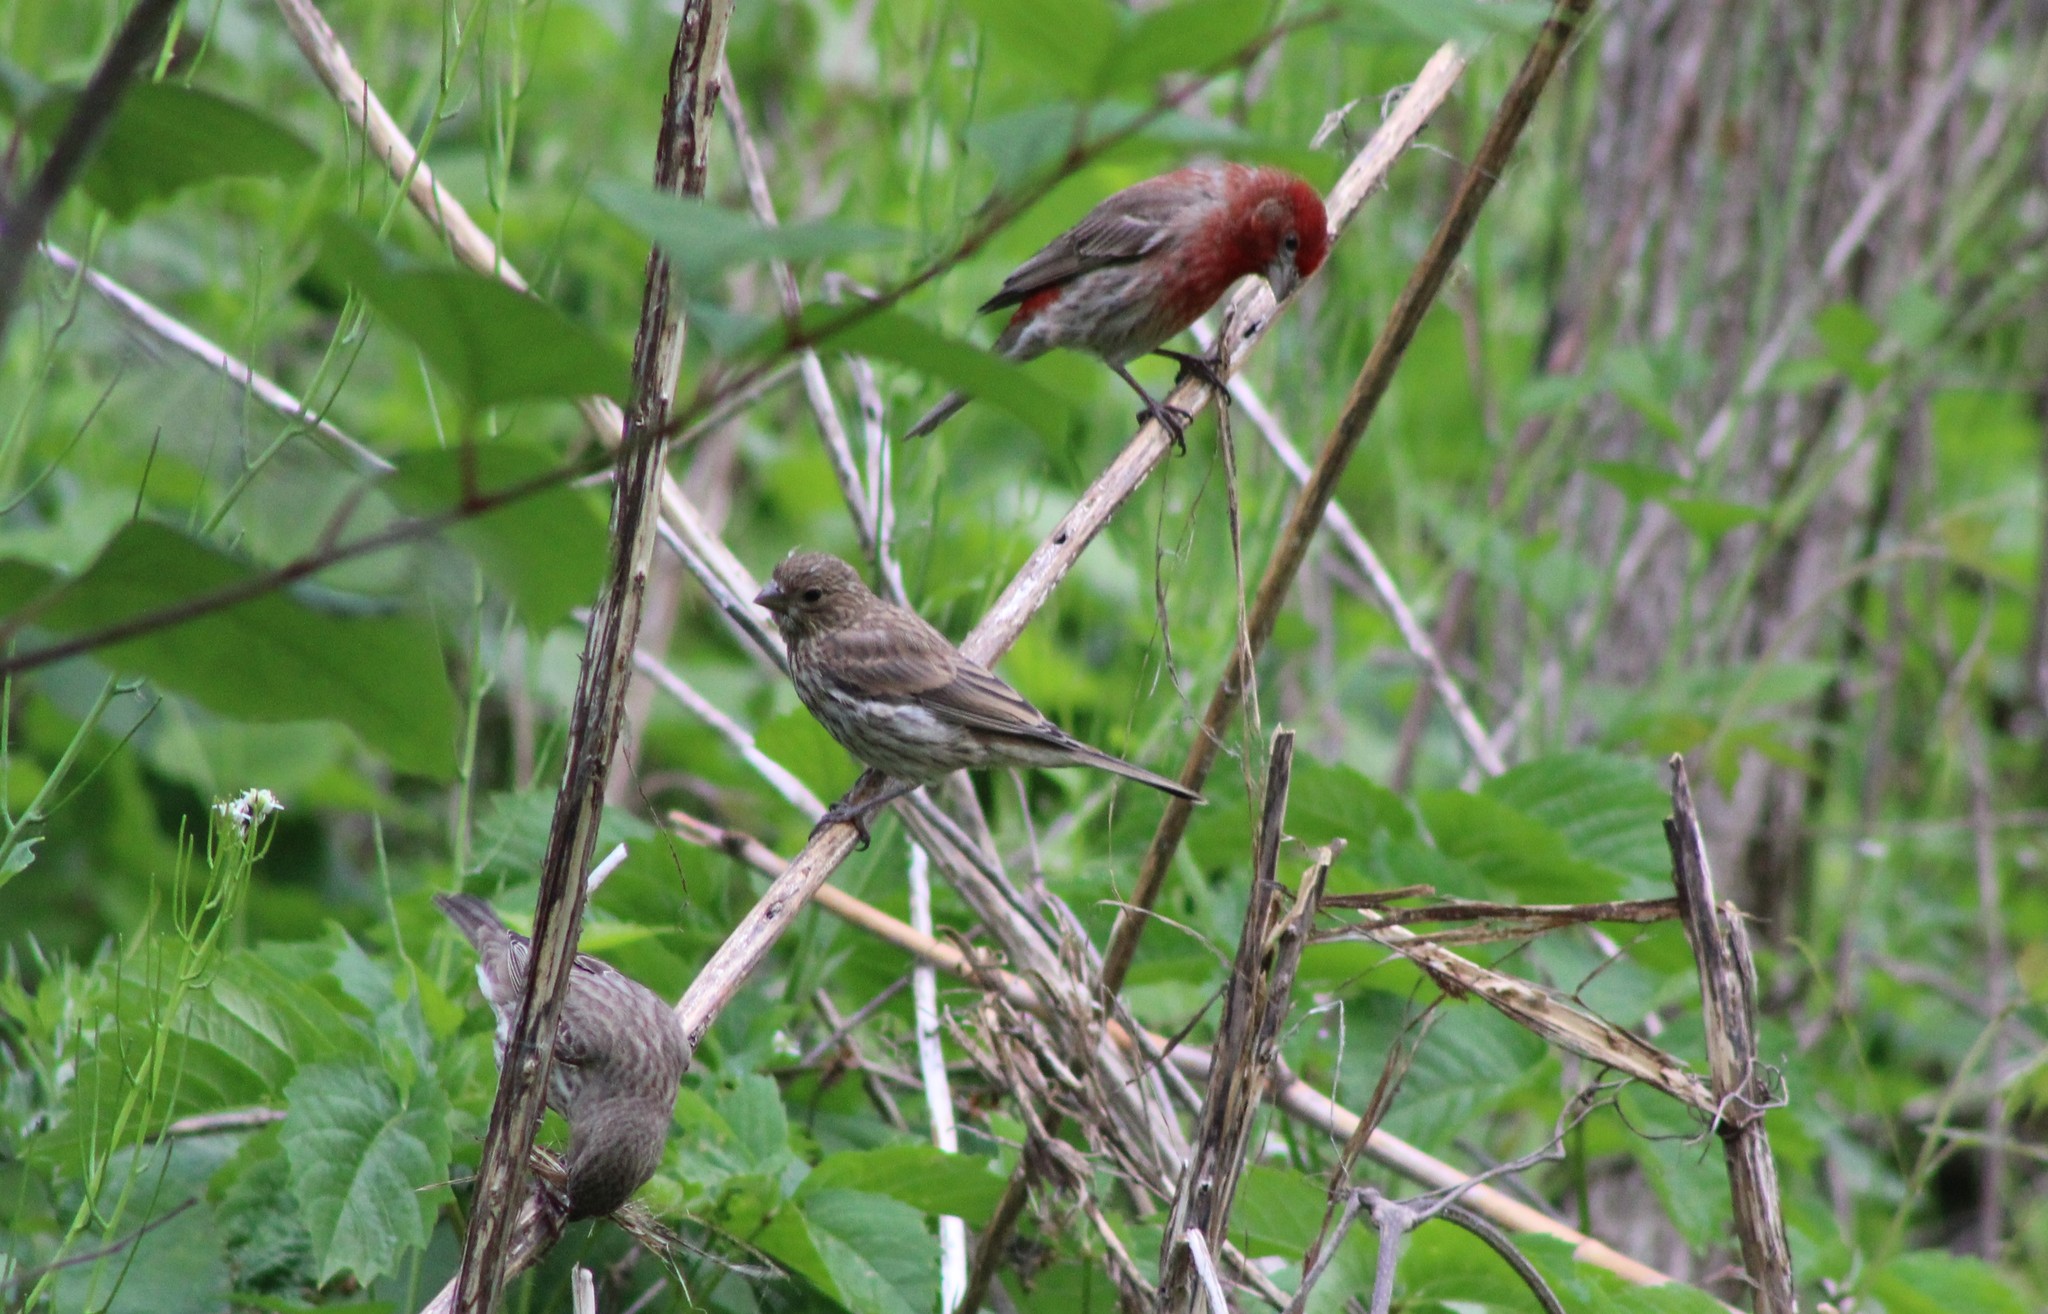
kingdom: Animalia
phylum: Chordata
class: Aves
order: Passeriformes
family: Fringillidae
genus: Haemorhous
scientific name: Haemorhous mexicanus
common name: House finch
